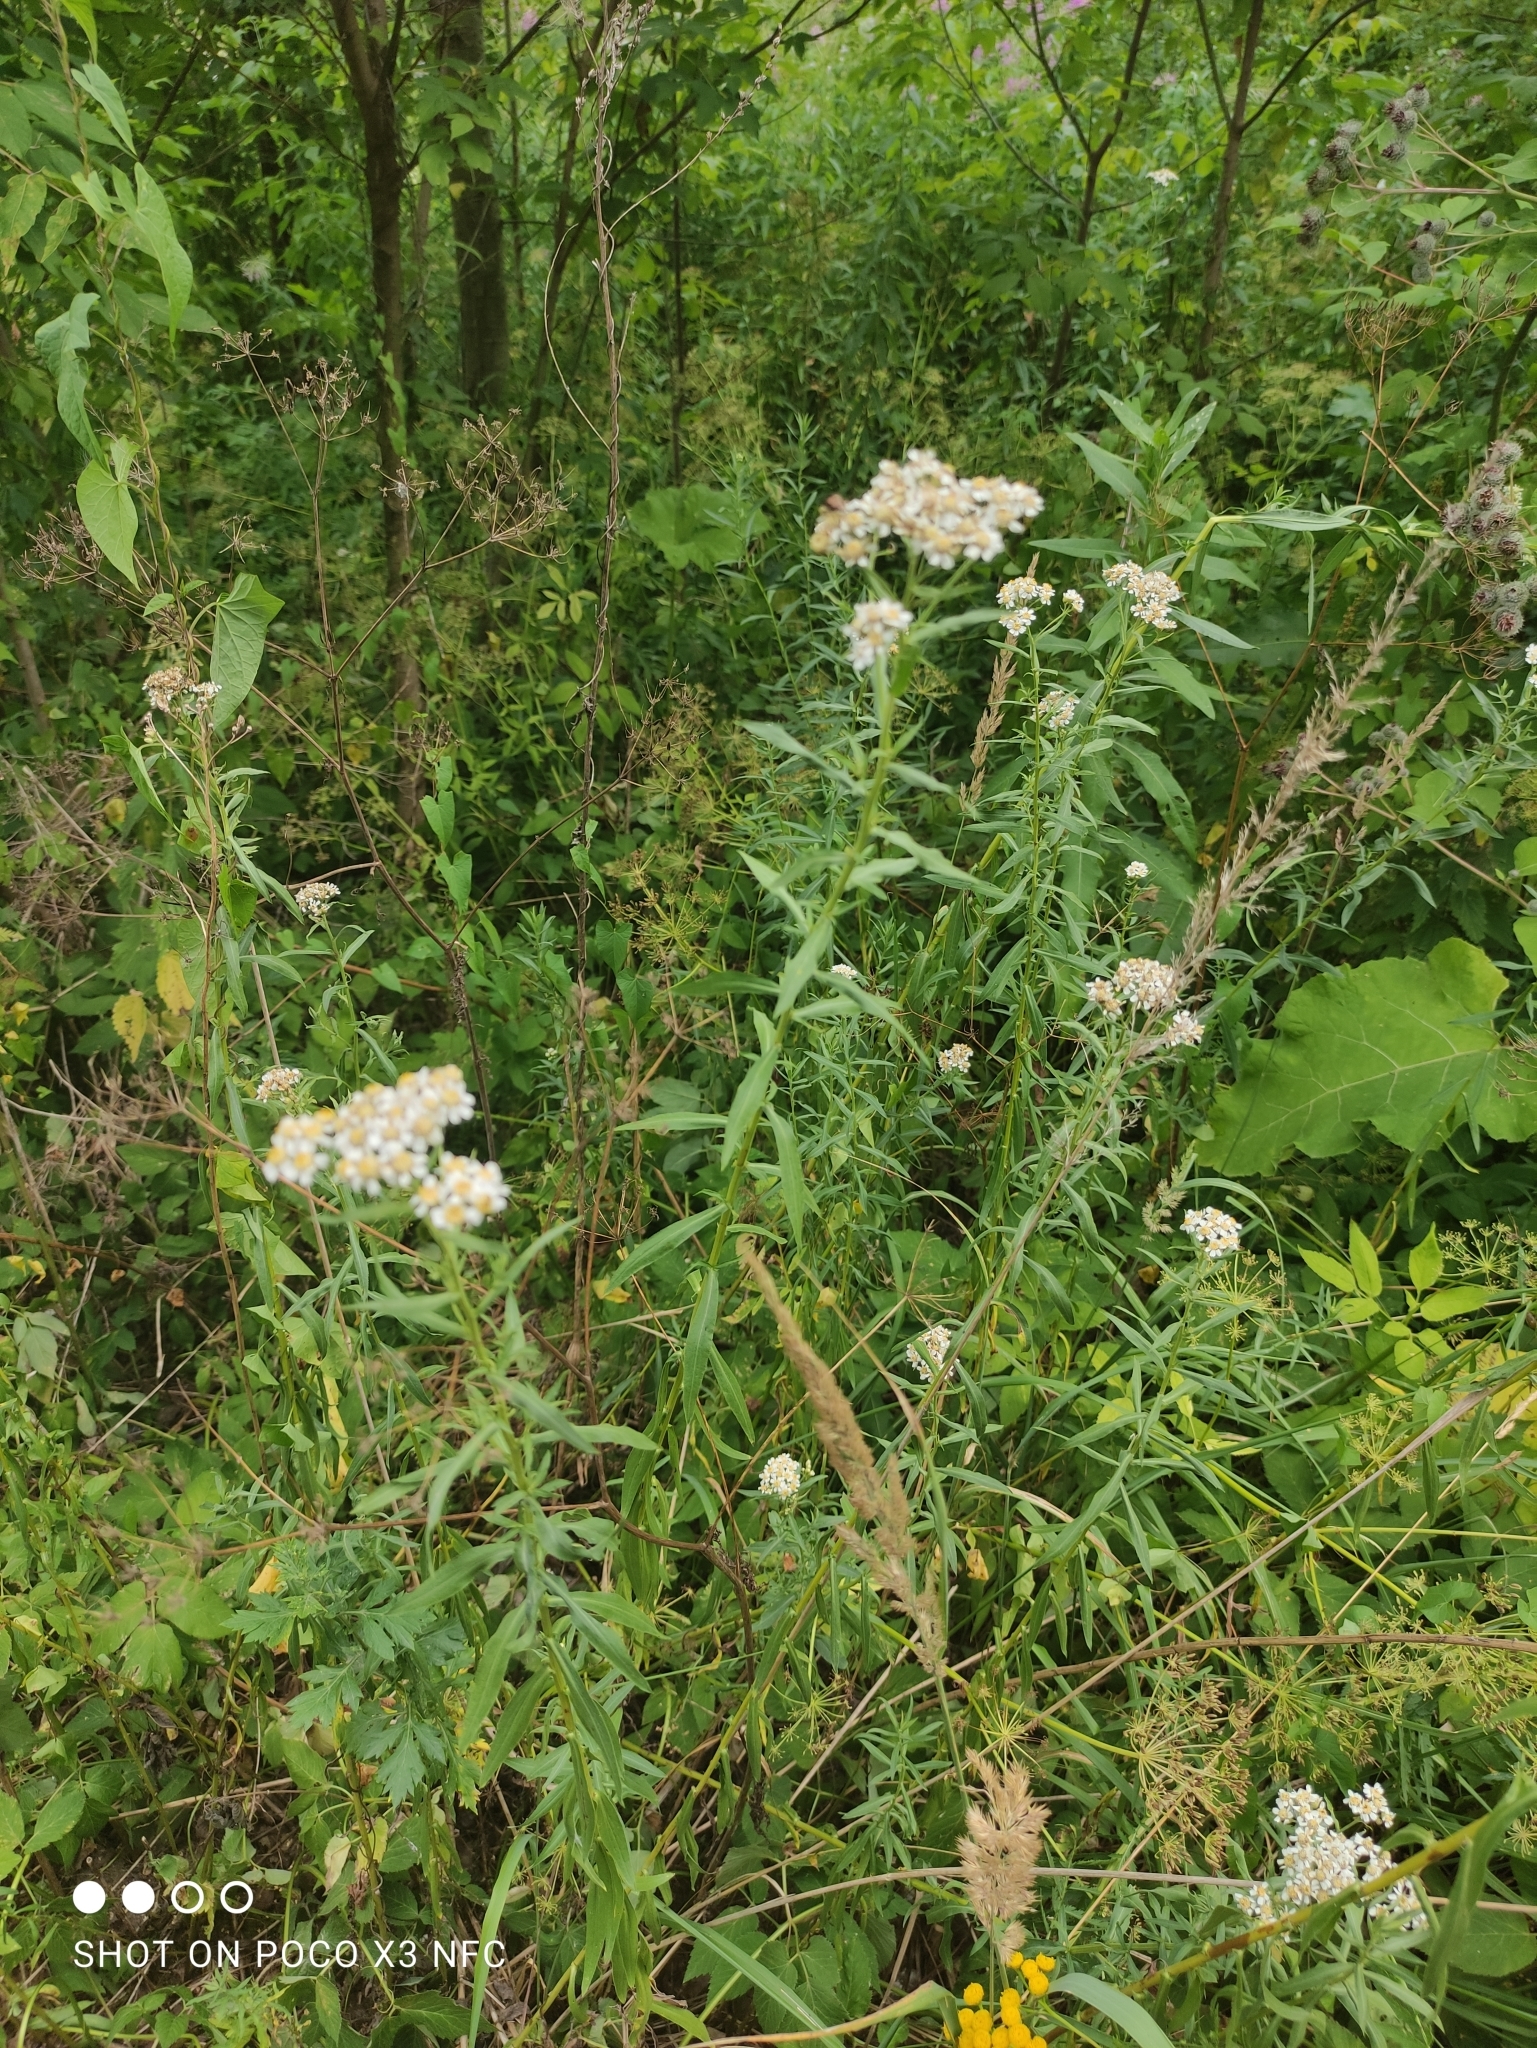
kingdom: Plantae
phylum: Tracheophyta
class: Magnoliopsida
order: Asterales
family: Asteraceae
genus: Achillea
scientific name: Achillea salicifolia
